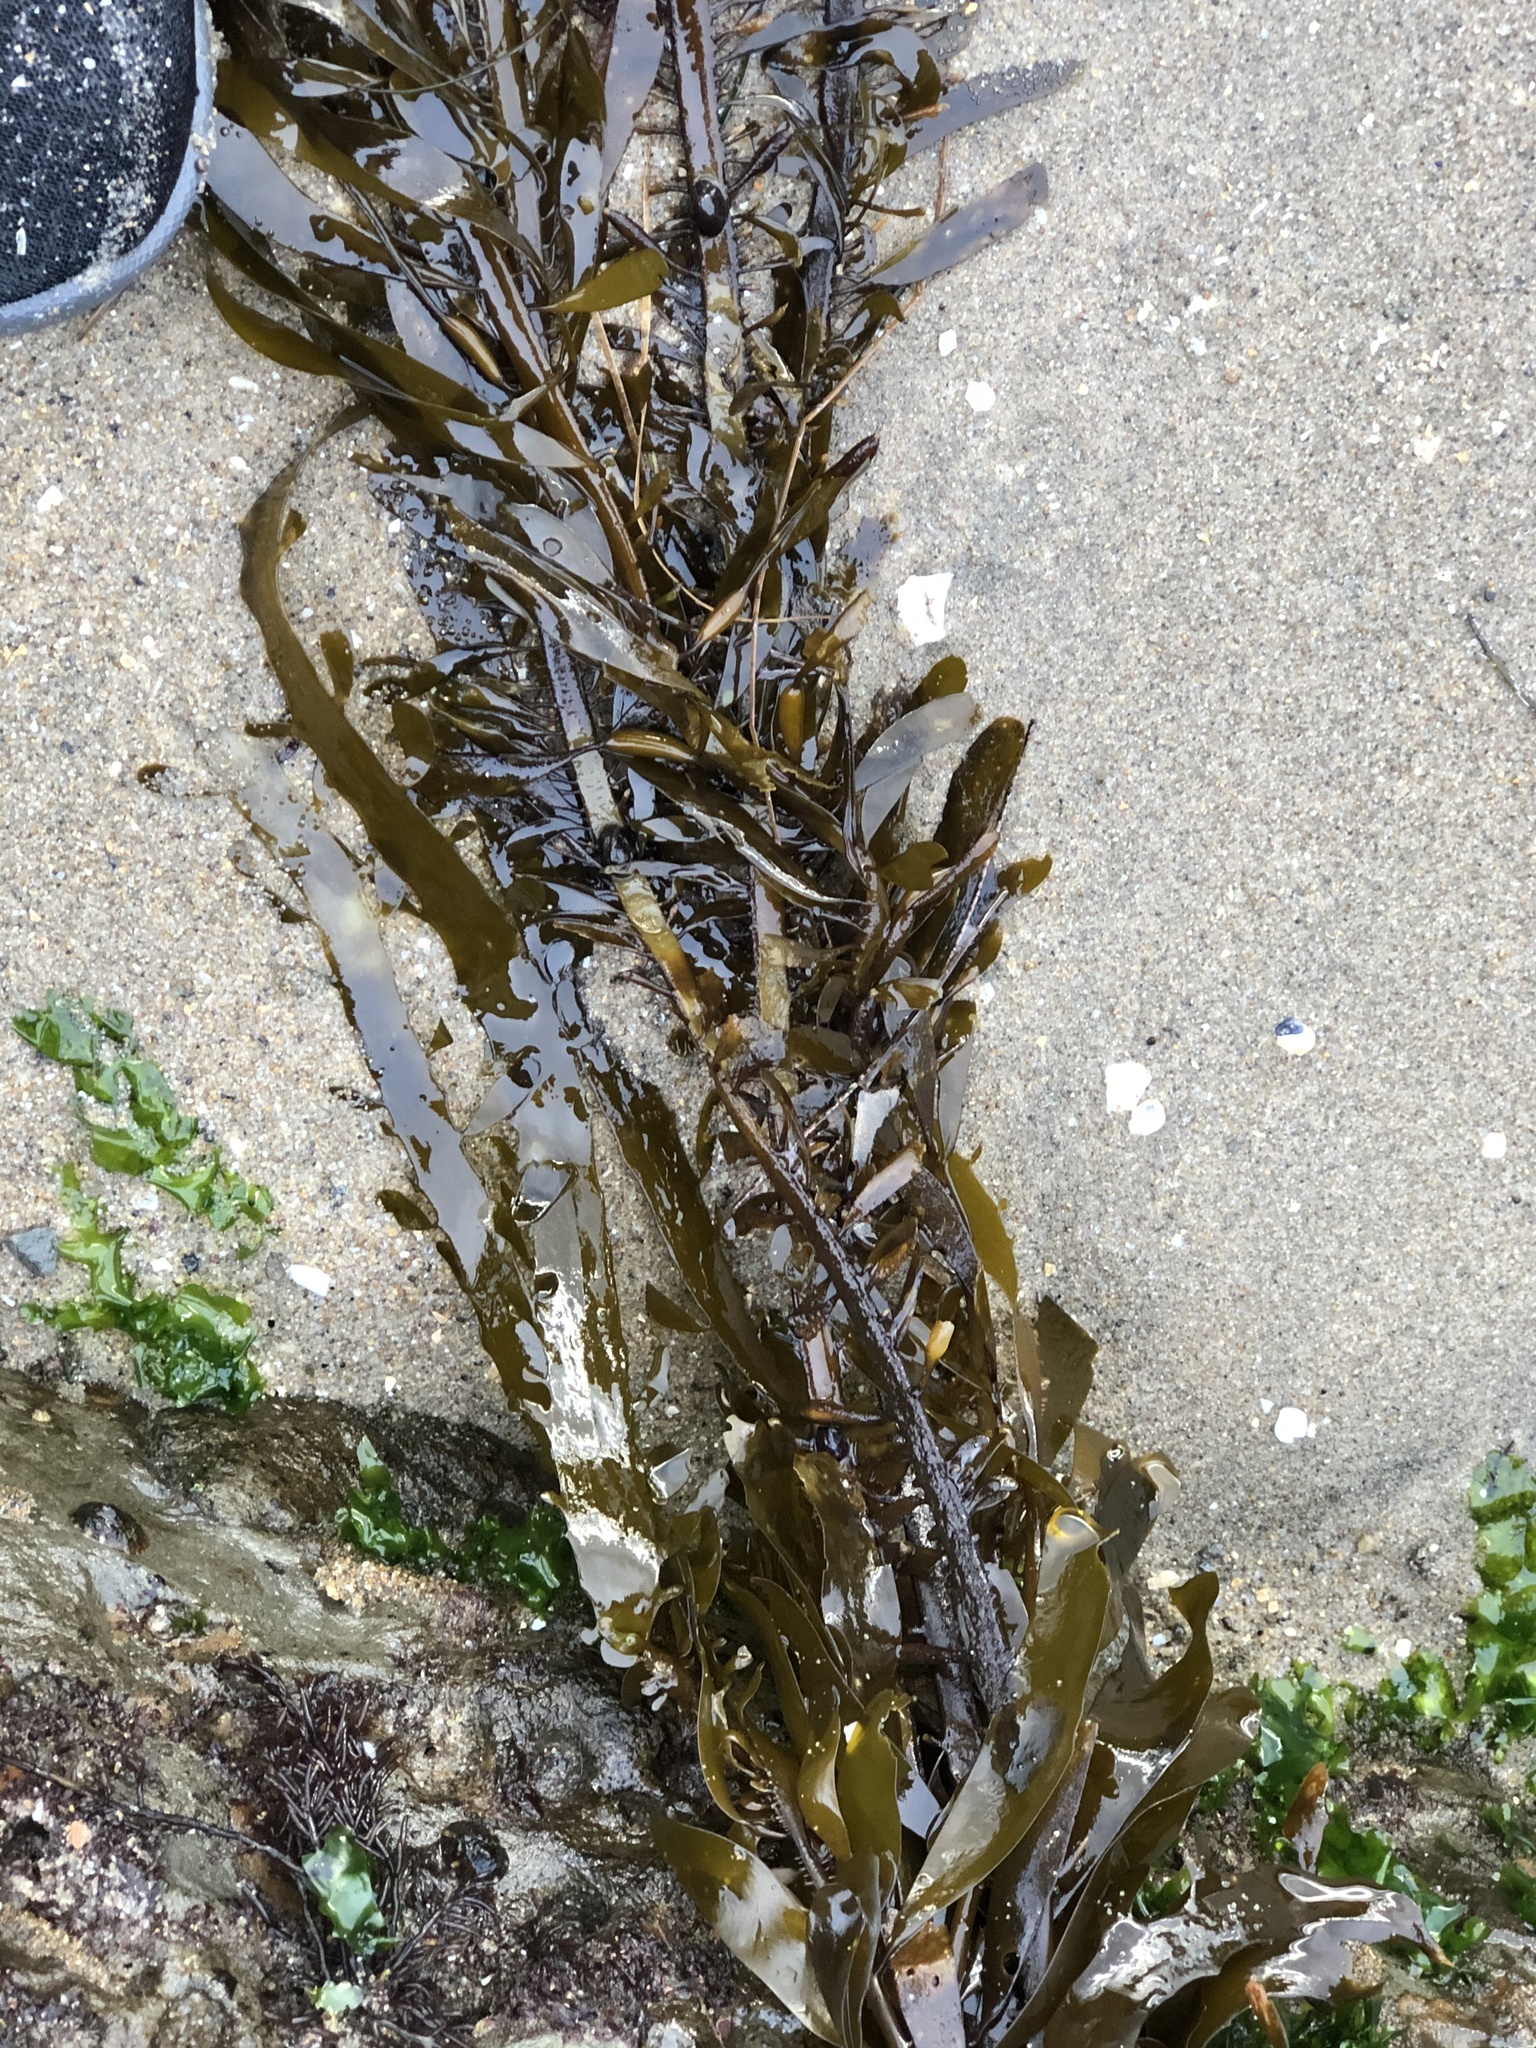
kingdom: Chromista
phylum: Ochrophyta
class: Phaeophyceae
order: Laminariales
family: Lessoniaceae
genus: Egregia
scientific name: Egregia menziesii
